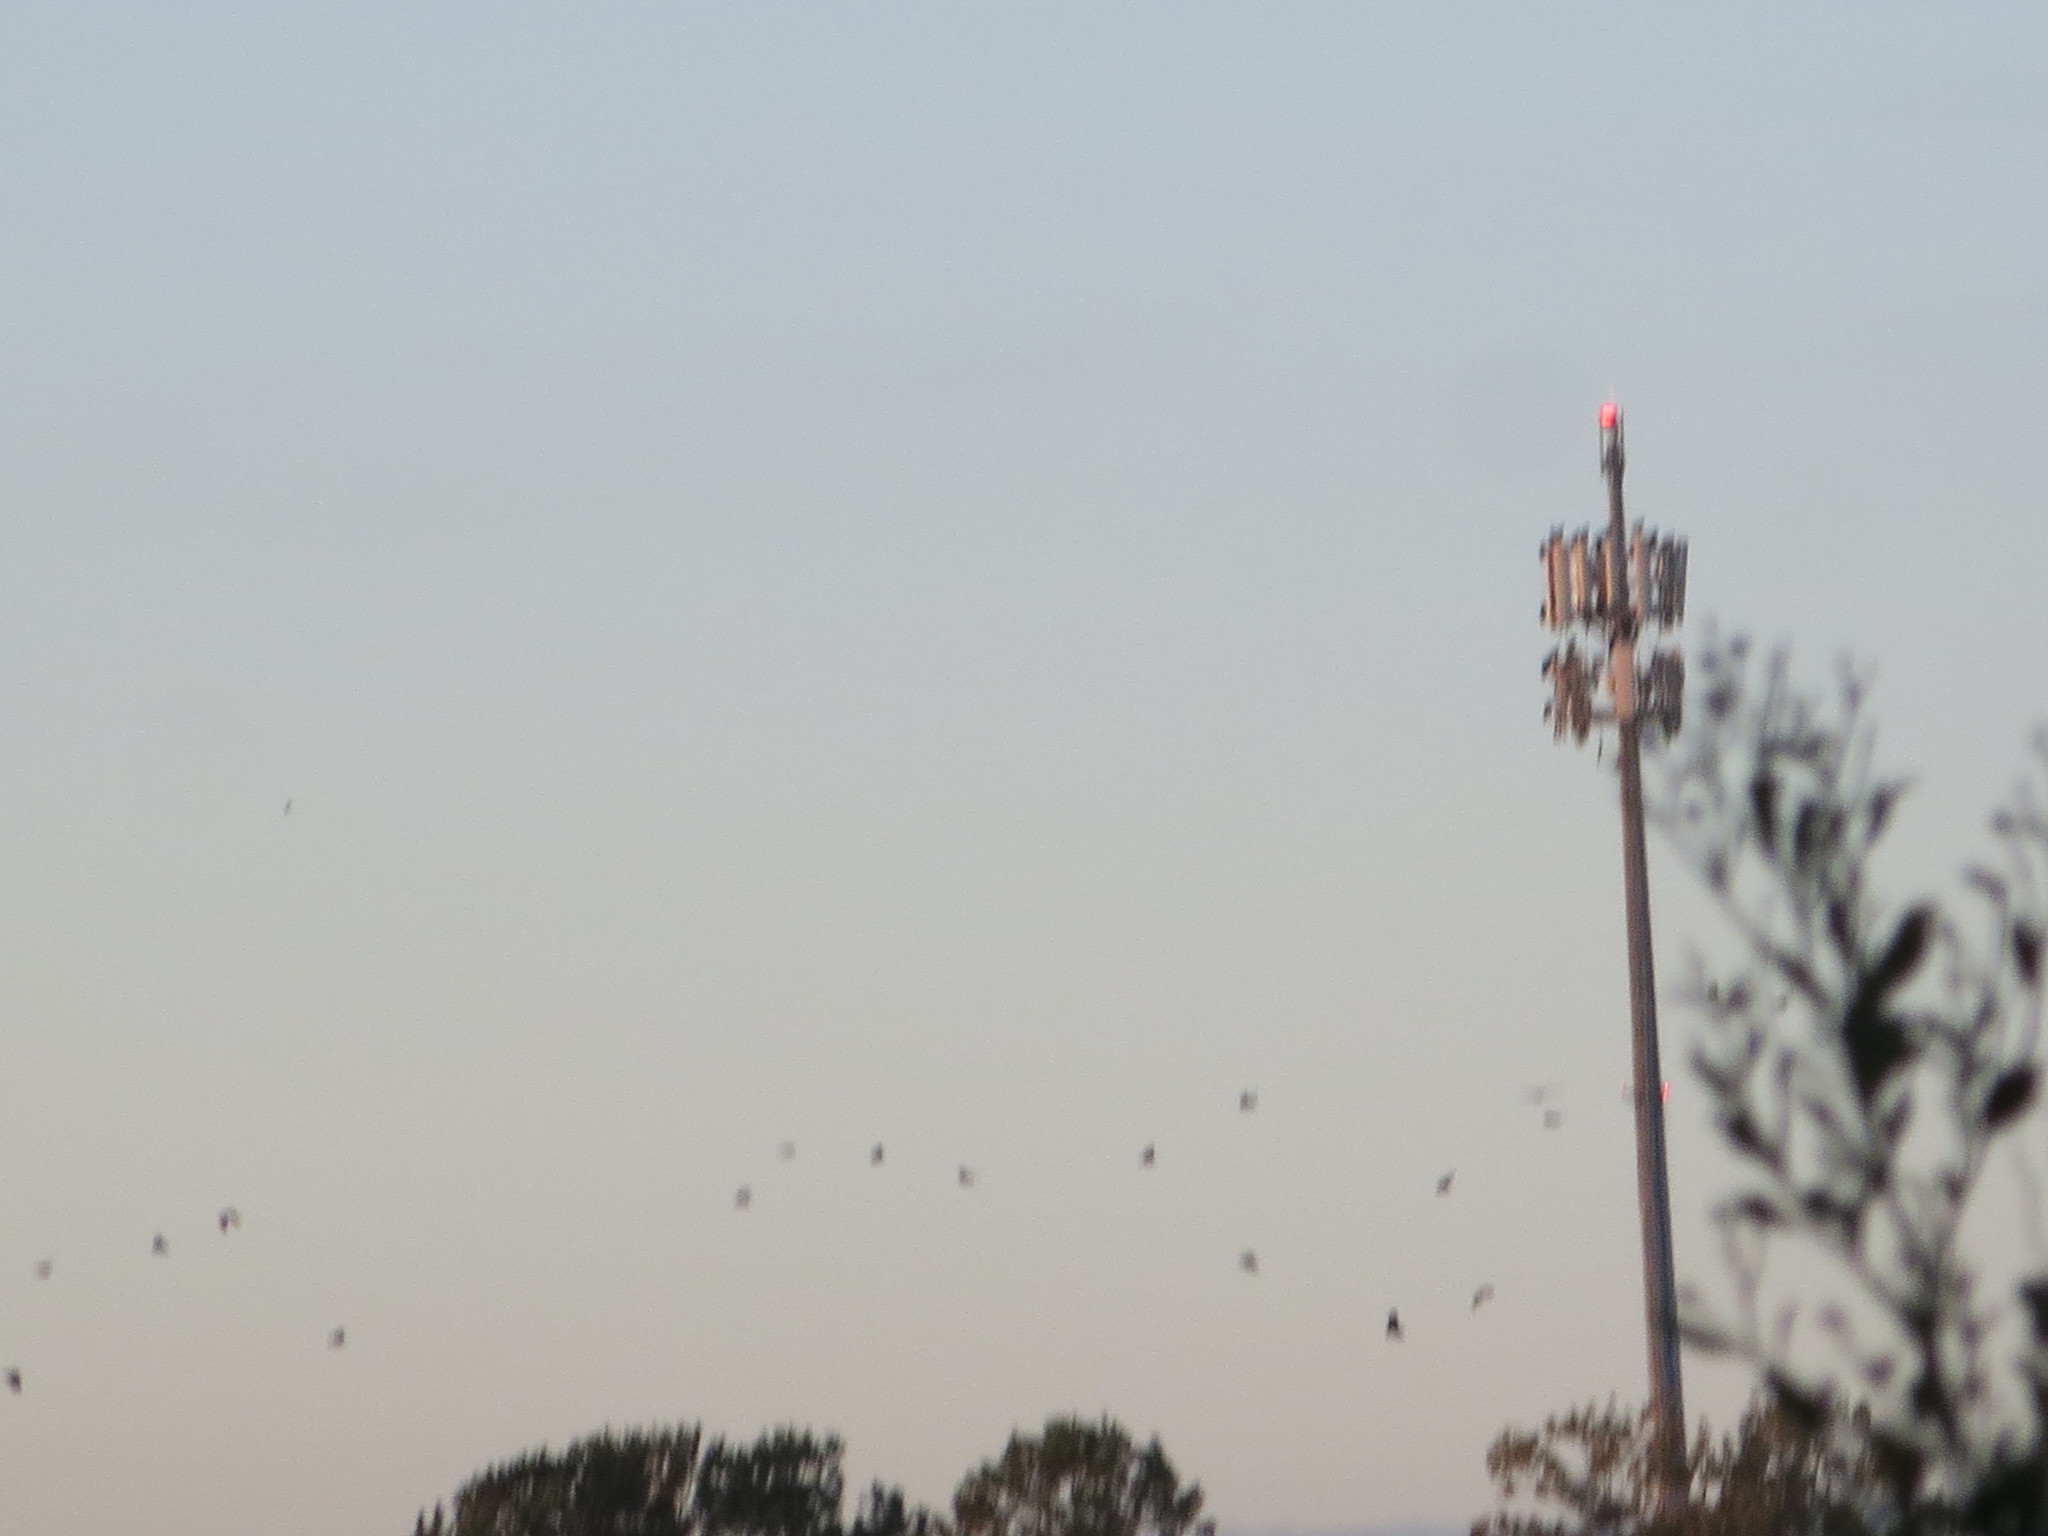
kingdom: Animalia
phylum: Chordata
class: Aves
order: Accipitriformes
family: Cathartidae
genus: Coragyps
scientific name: Coragyps atratus
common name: Black vulture
